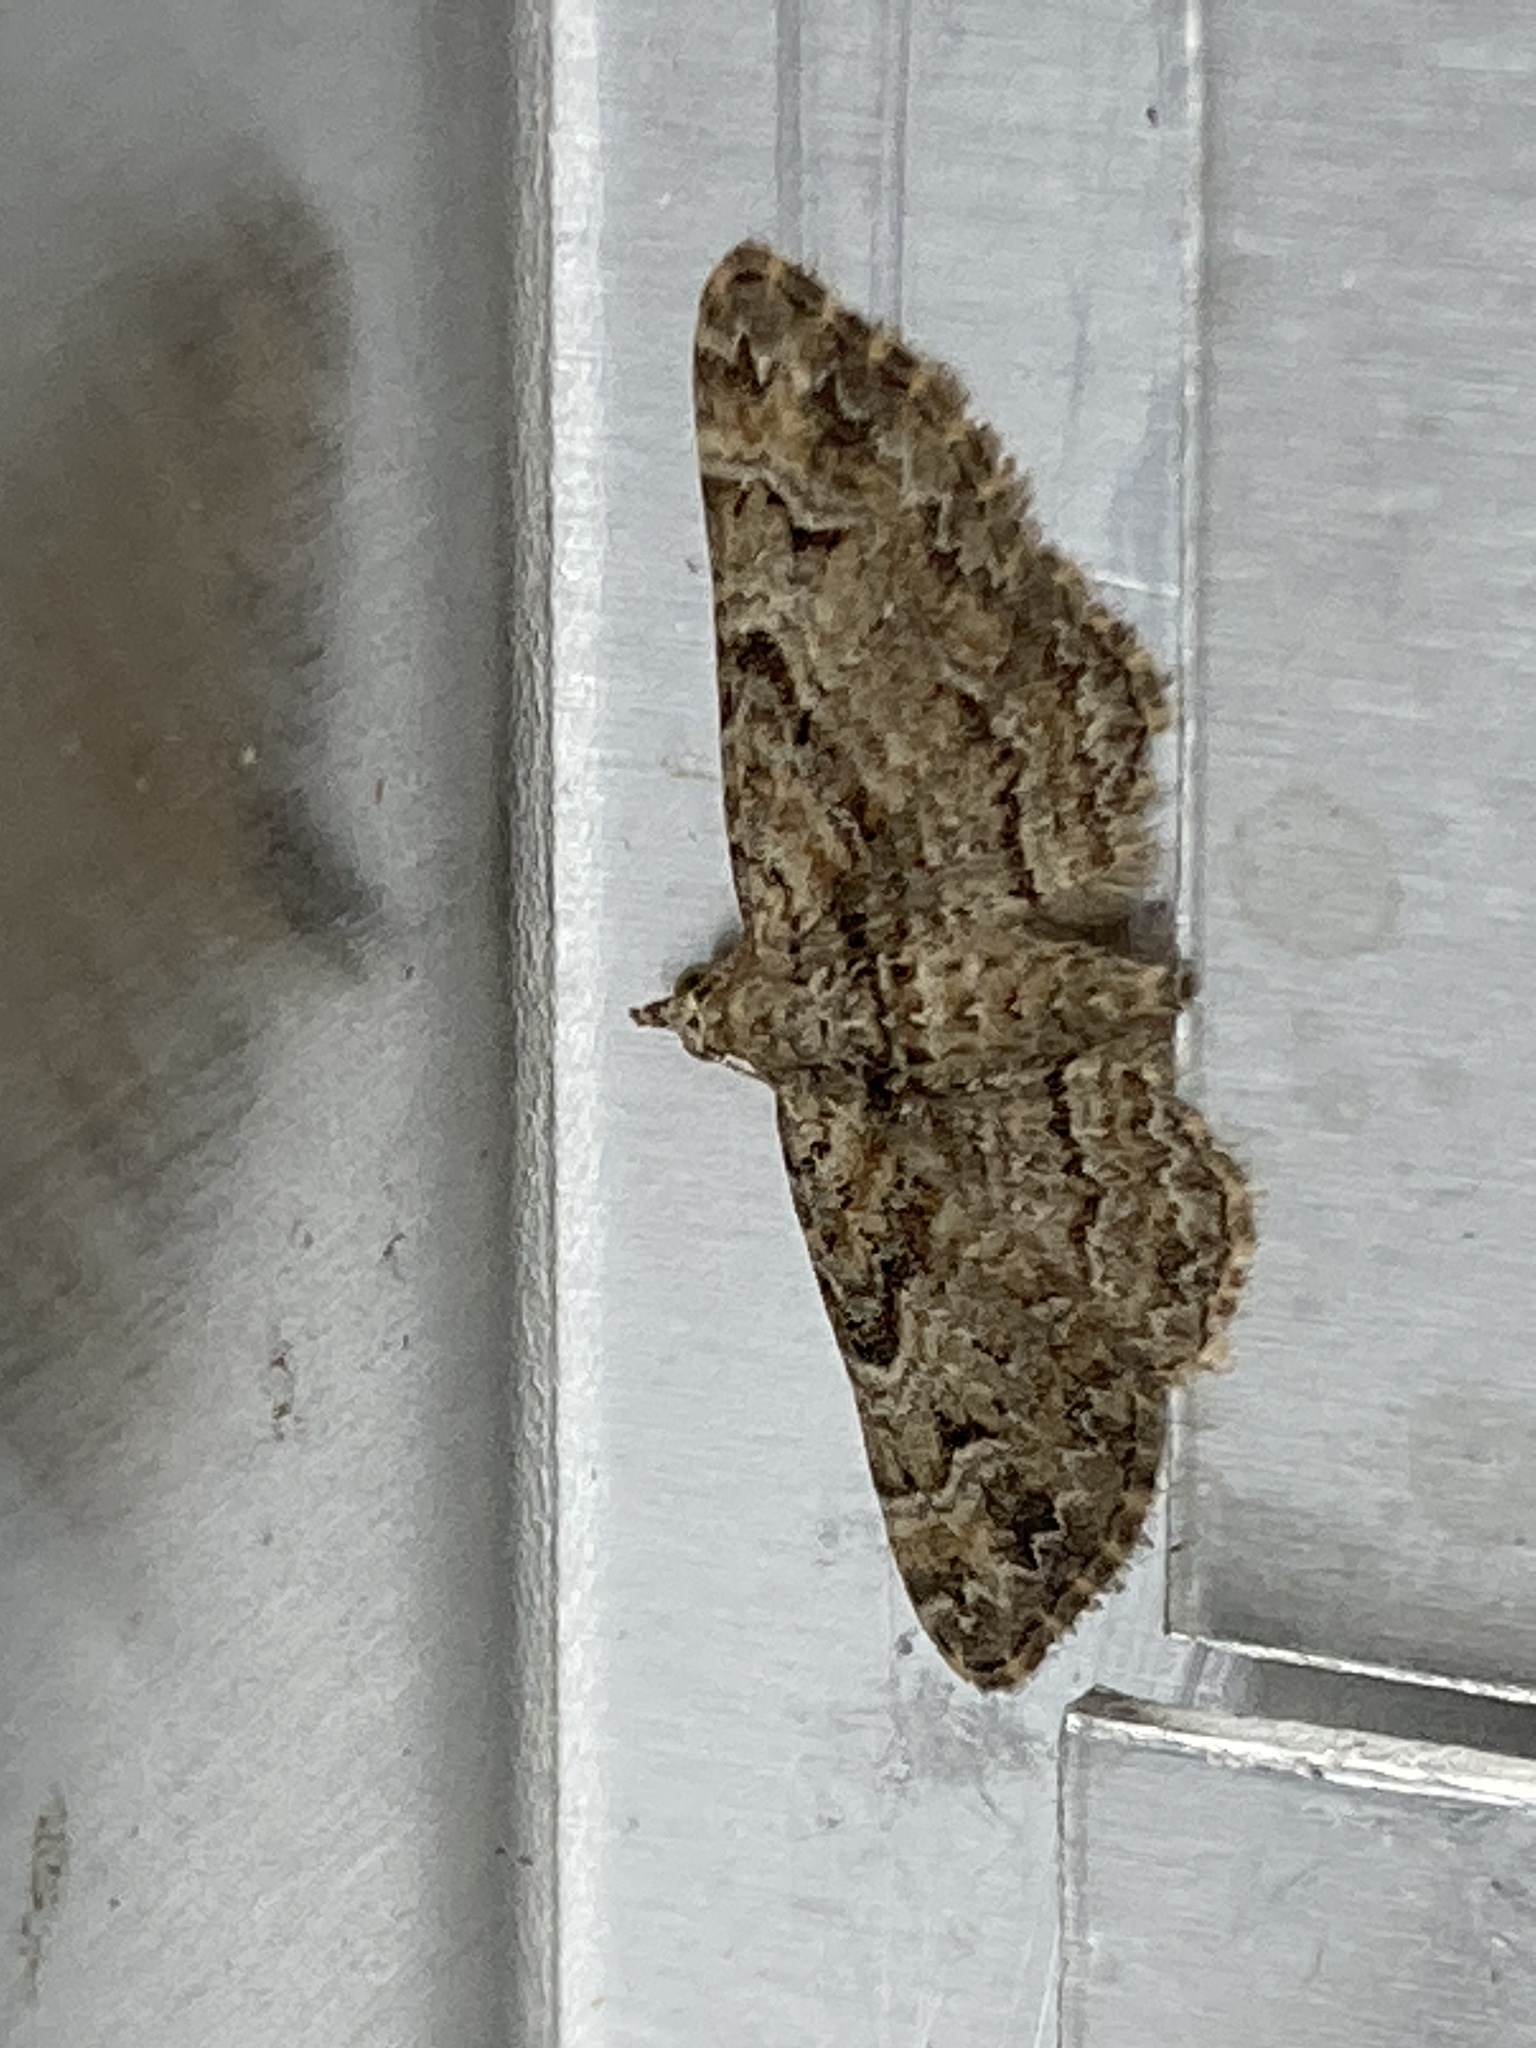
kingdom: Animalia
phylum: Arthropoda
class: Insecta
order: Lepidoptera
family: Geometridae
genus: Gymnoscelis
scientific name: Gymnoscelis rufifasciata
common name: Double-striped pug
